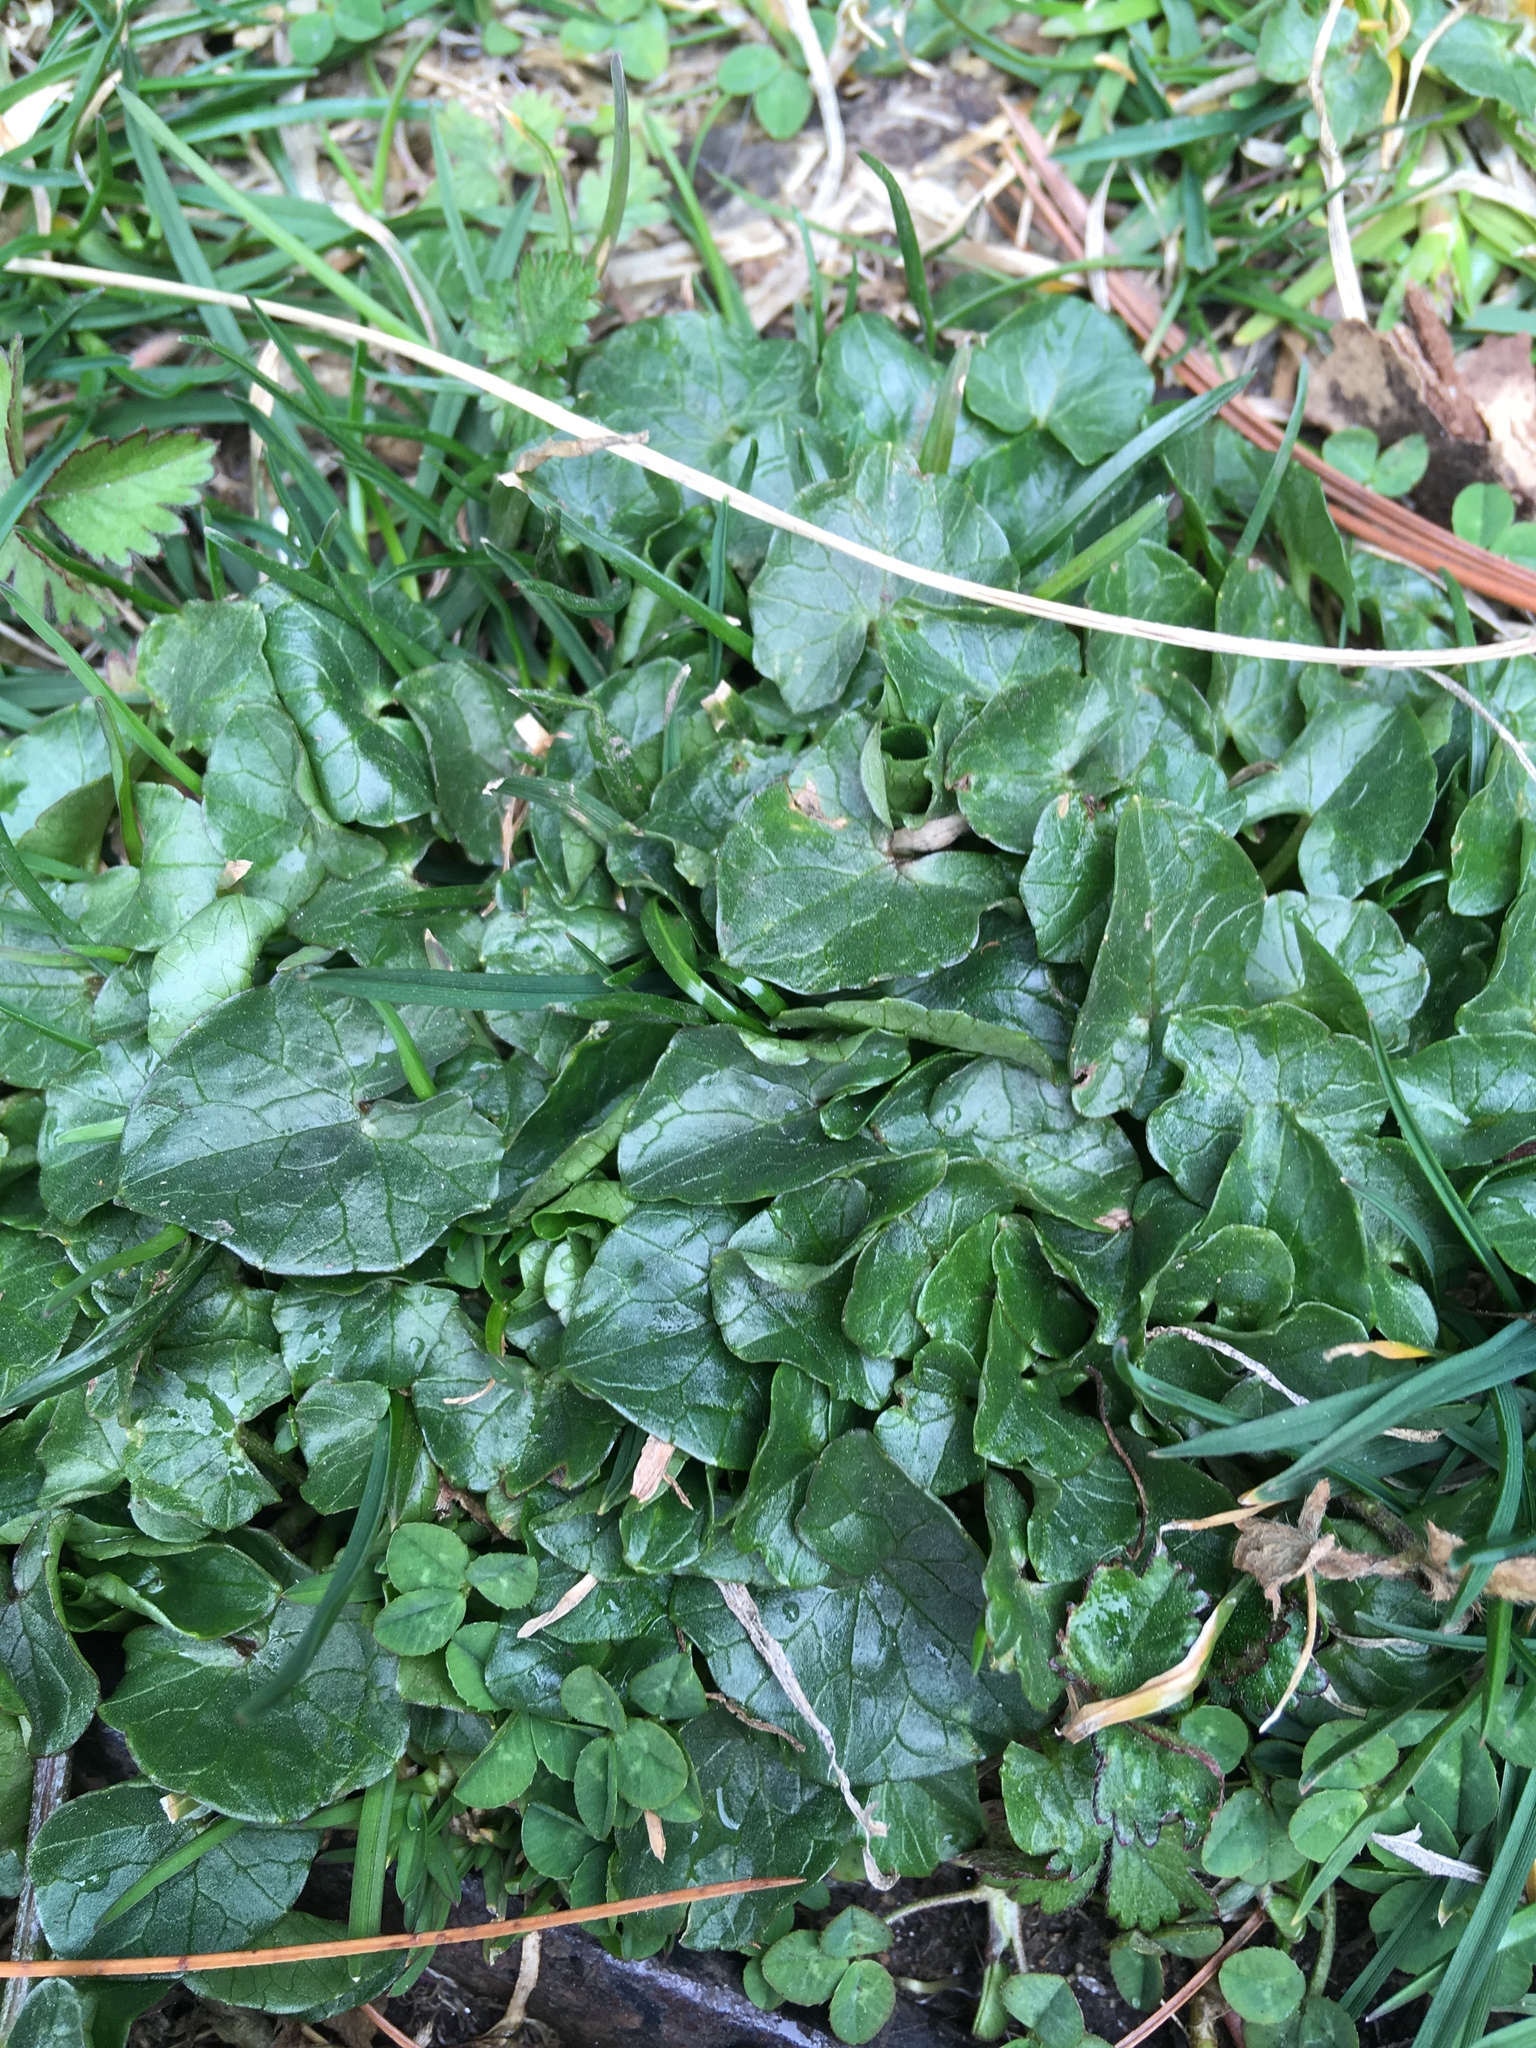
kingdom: Plantae
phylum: Tracheophyta
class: Magnoliopsida
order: Ranunculales
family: Ranunculaceae
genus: Ficaria
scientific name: Ficaria verna
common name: Lesser celandine
